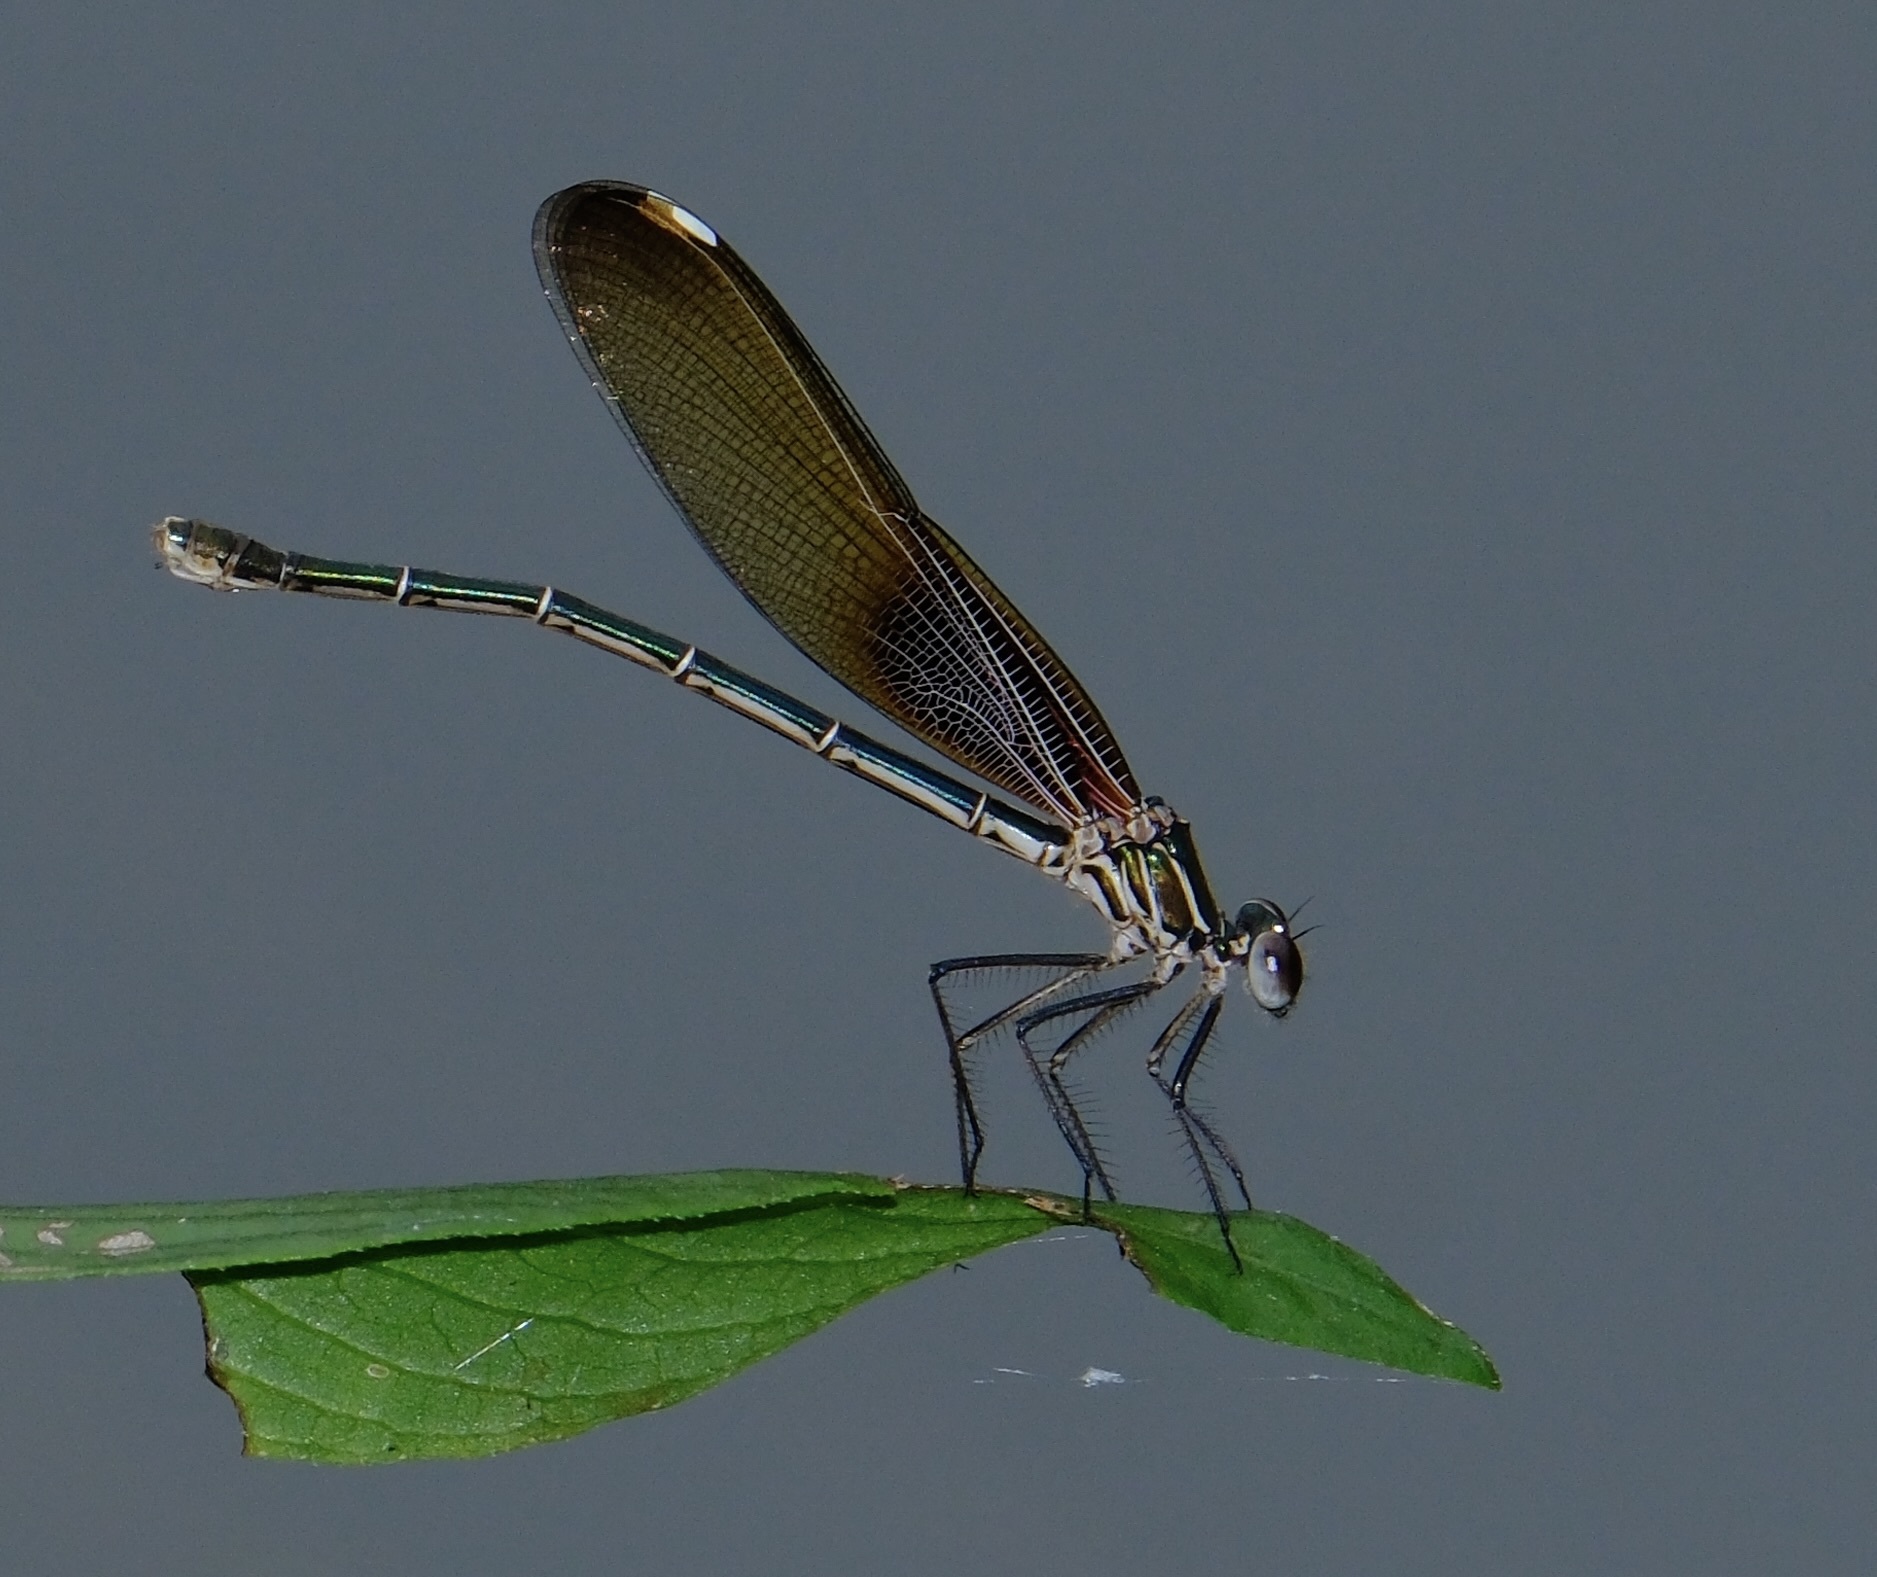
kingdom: Animalia
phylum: Arthropoda
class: Insecta
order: Odonata
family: Calopterygidae
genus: Hetaerina
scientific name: Hetaerina americana
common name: American rubyspot
